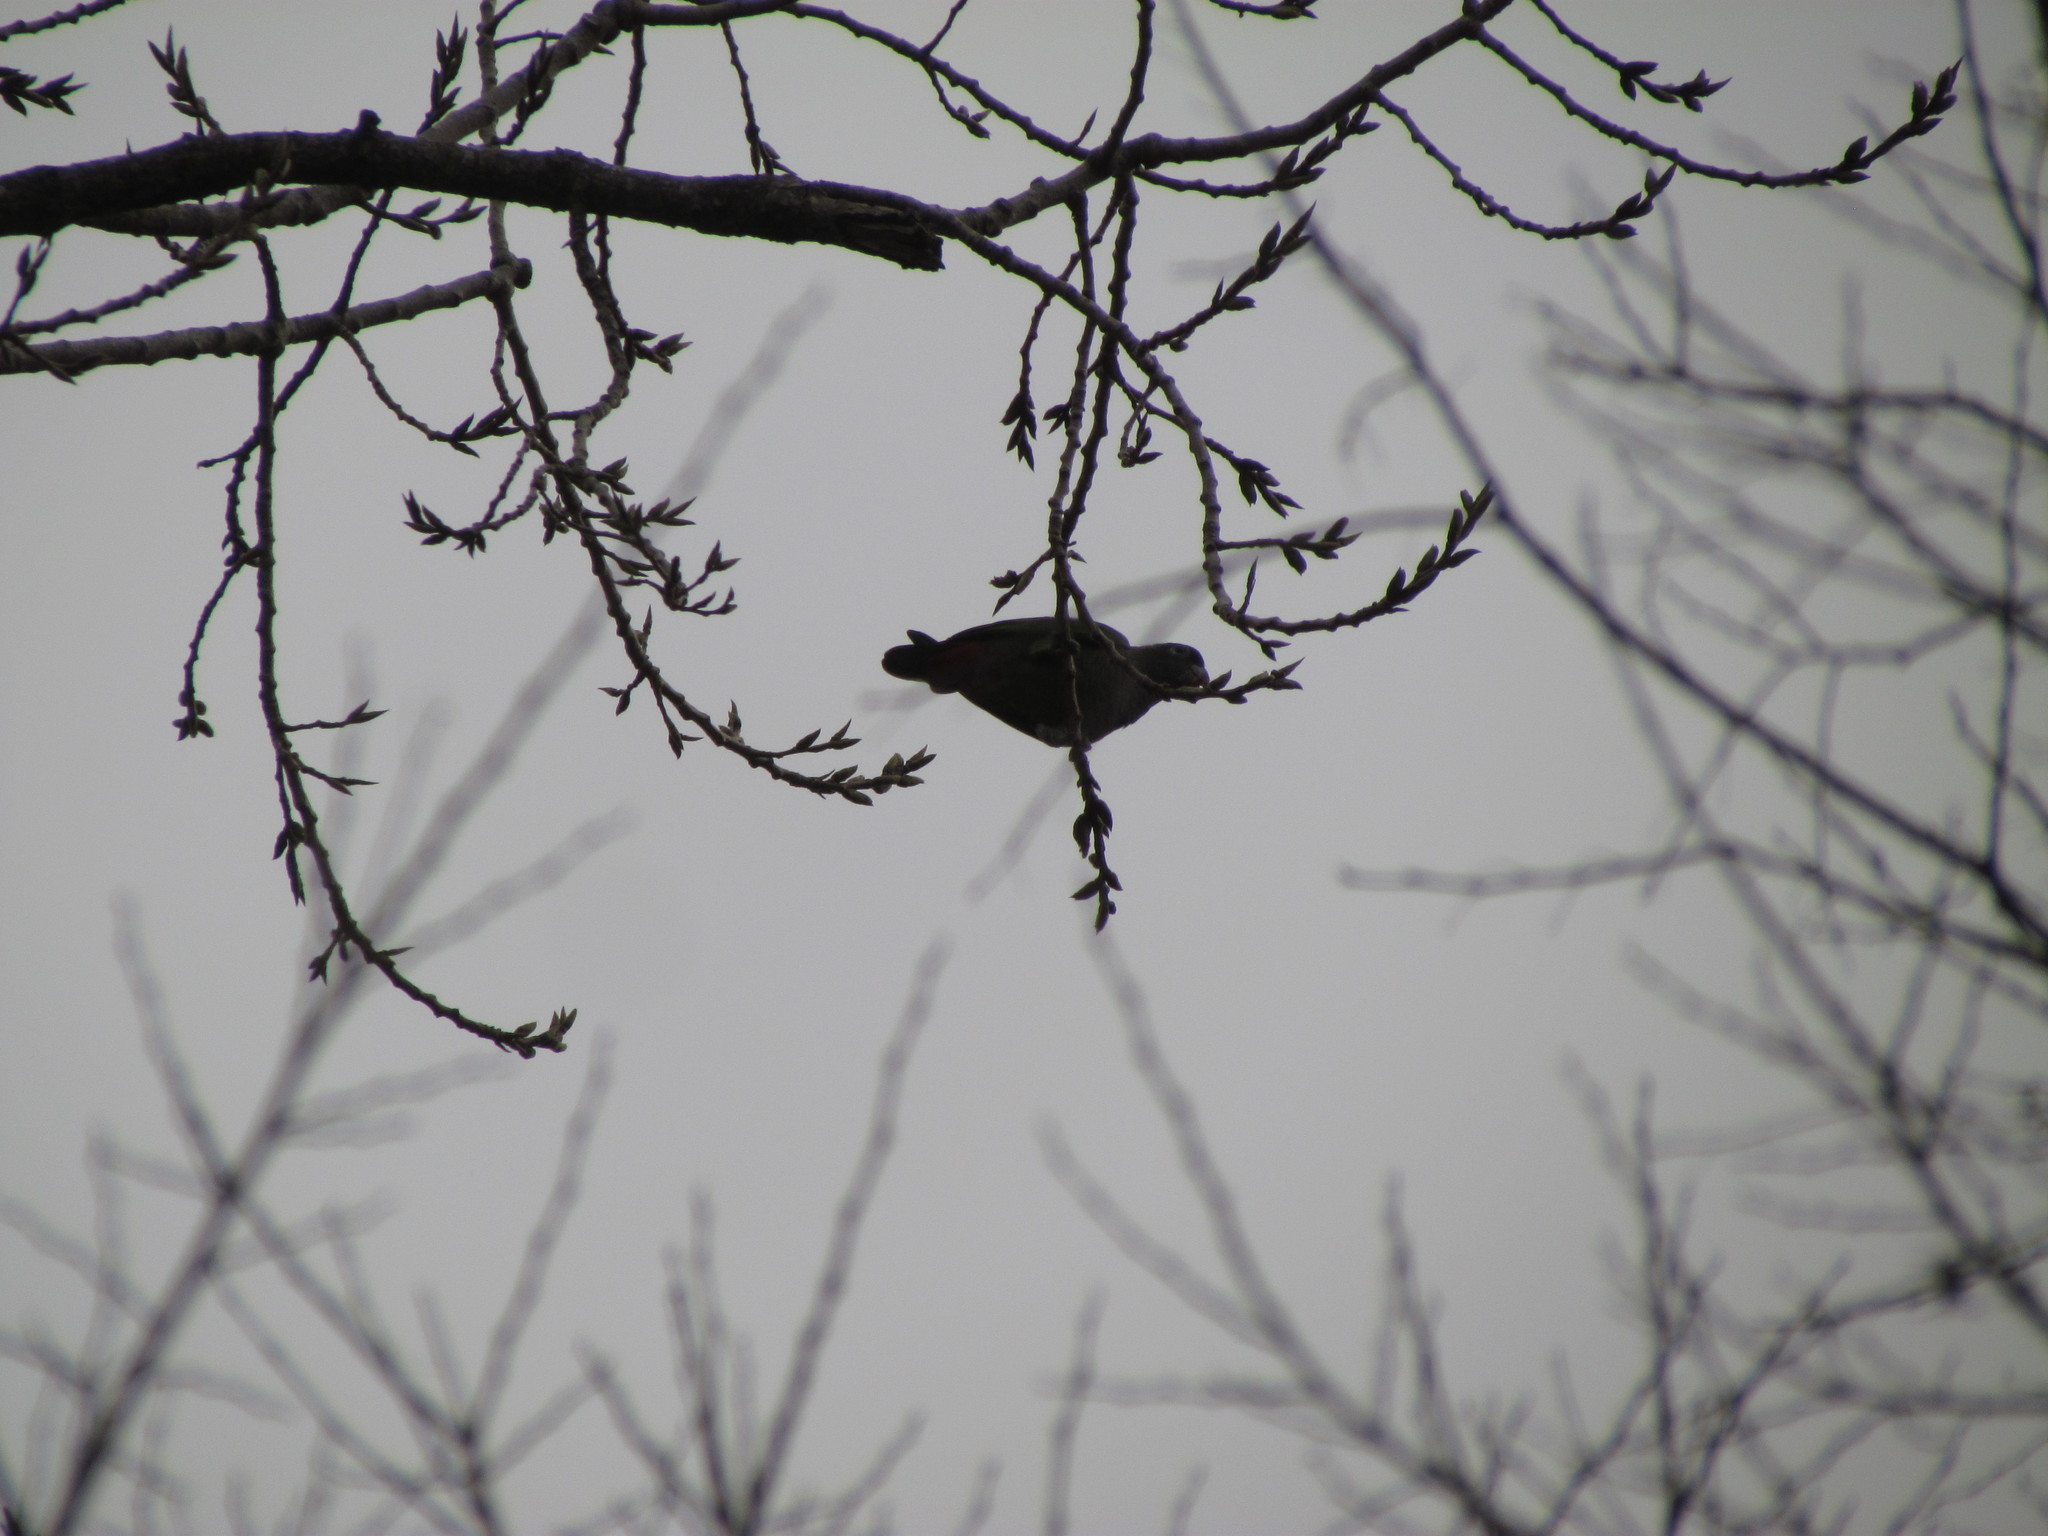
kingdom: Animalia
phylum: Chordata
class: Aves
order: Psittaciformes
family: Psittacidae
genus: Pionus
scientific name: Pionus maximiliani
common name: Scaly-headed parrot
